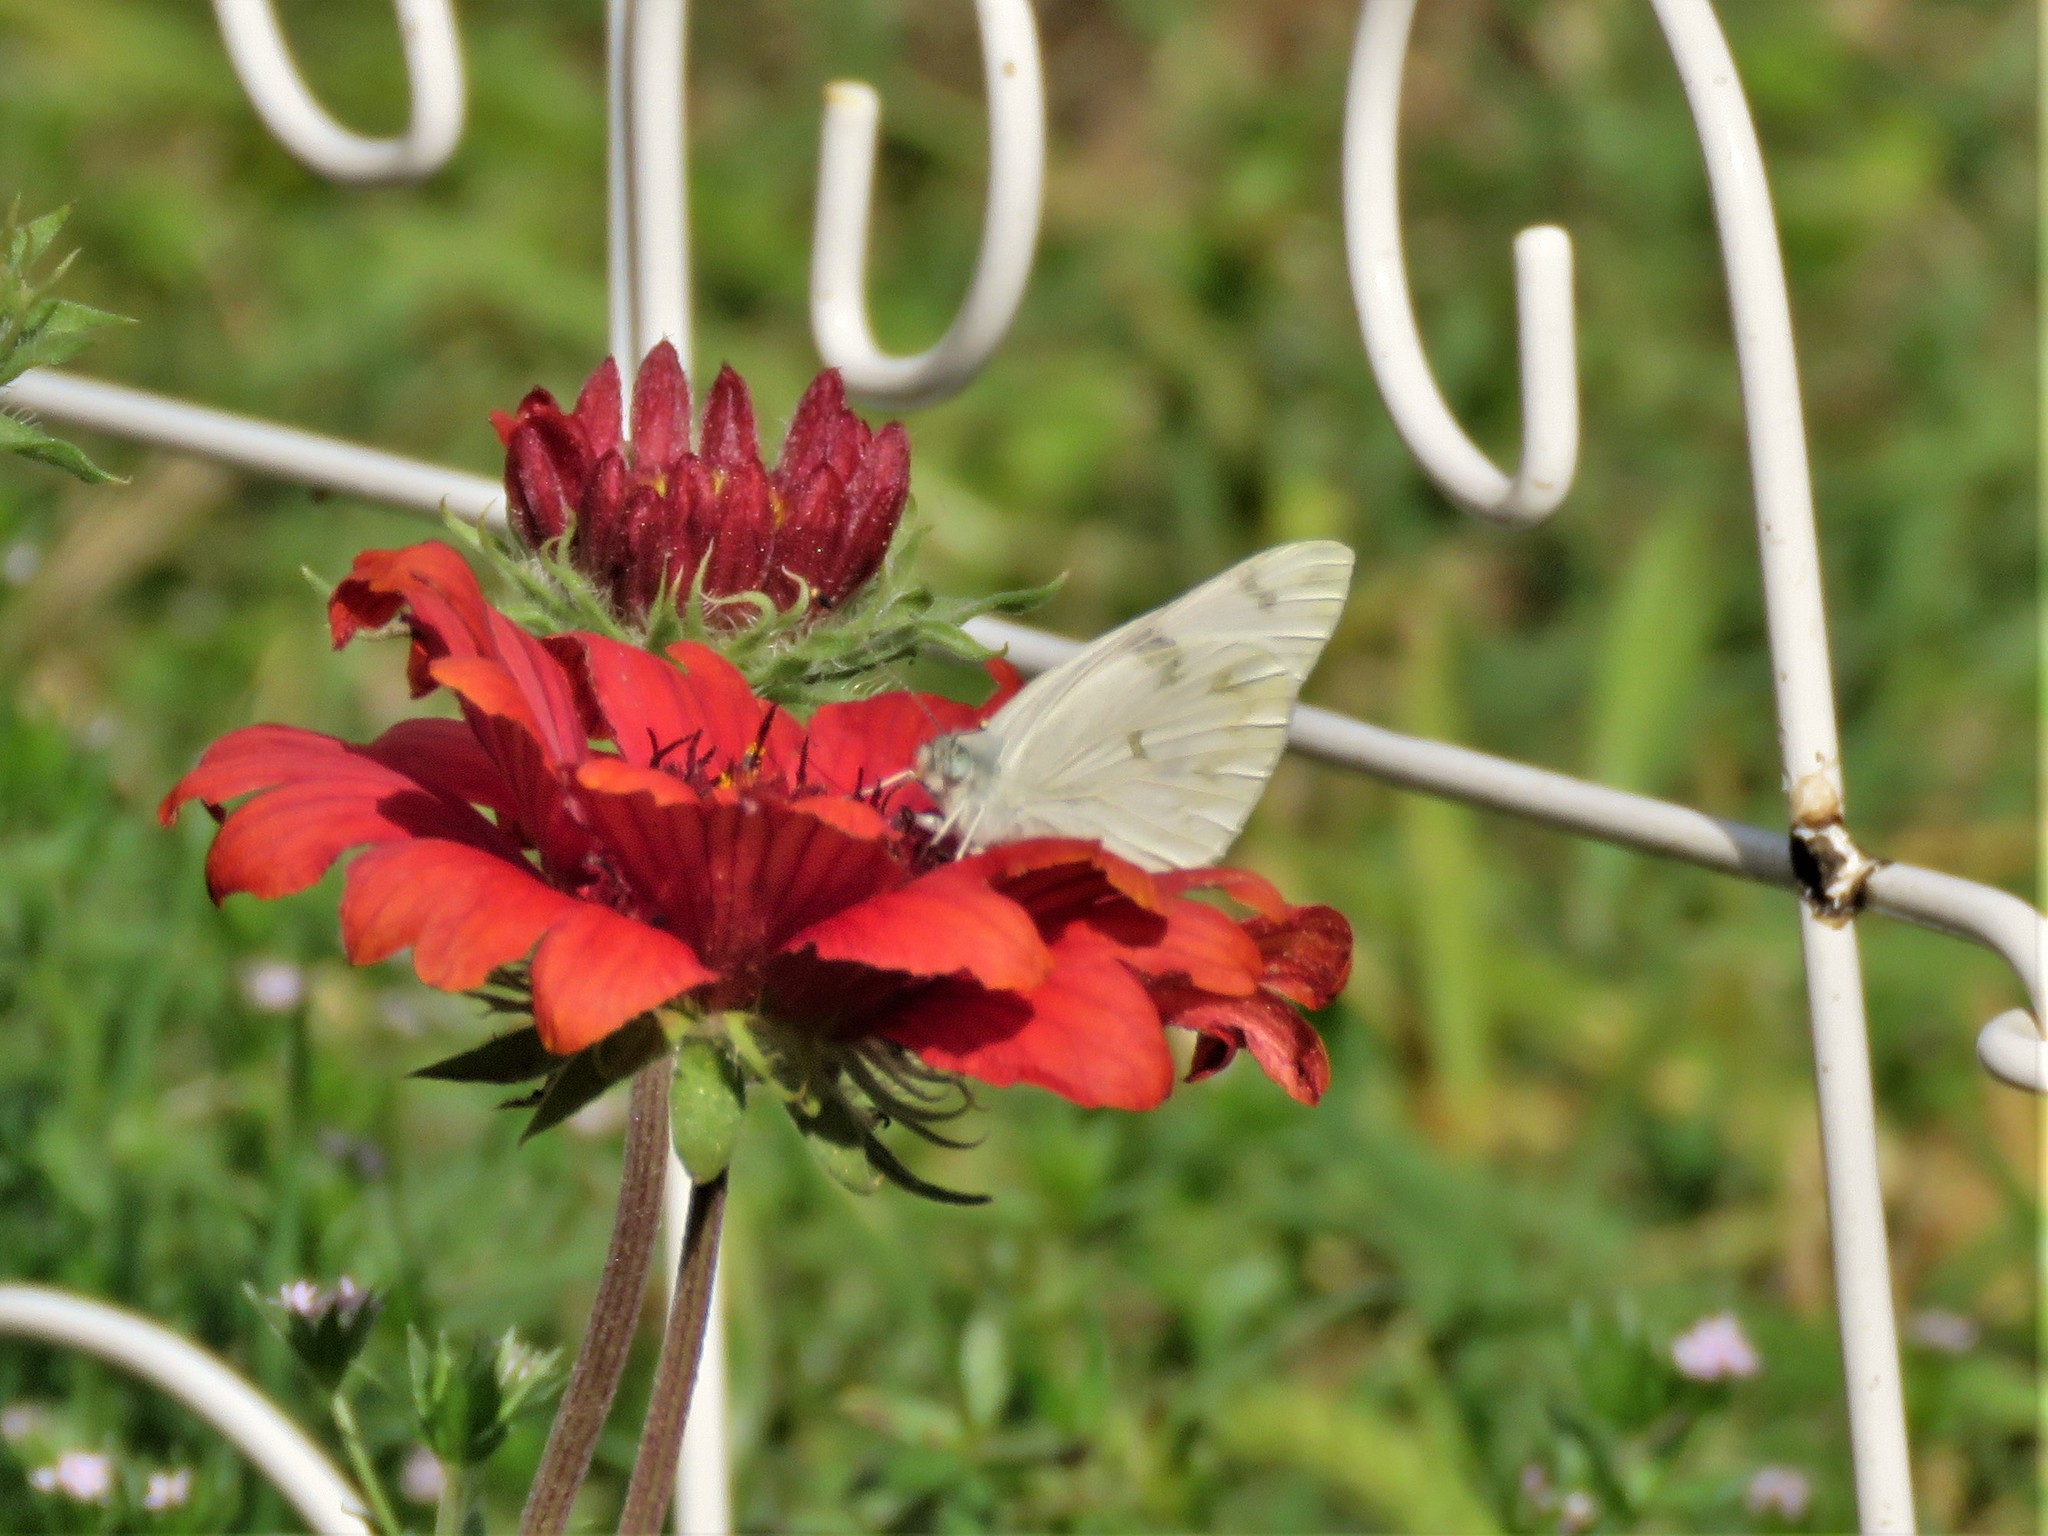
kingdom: Animalia
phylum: Arthropoda
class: Insecta
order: Lepidoptera
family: Pieridae
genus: Pontia
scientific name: Pontia protodice
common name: Checkered white
